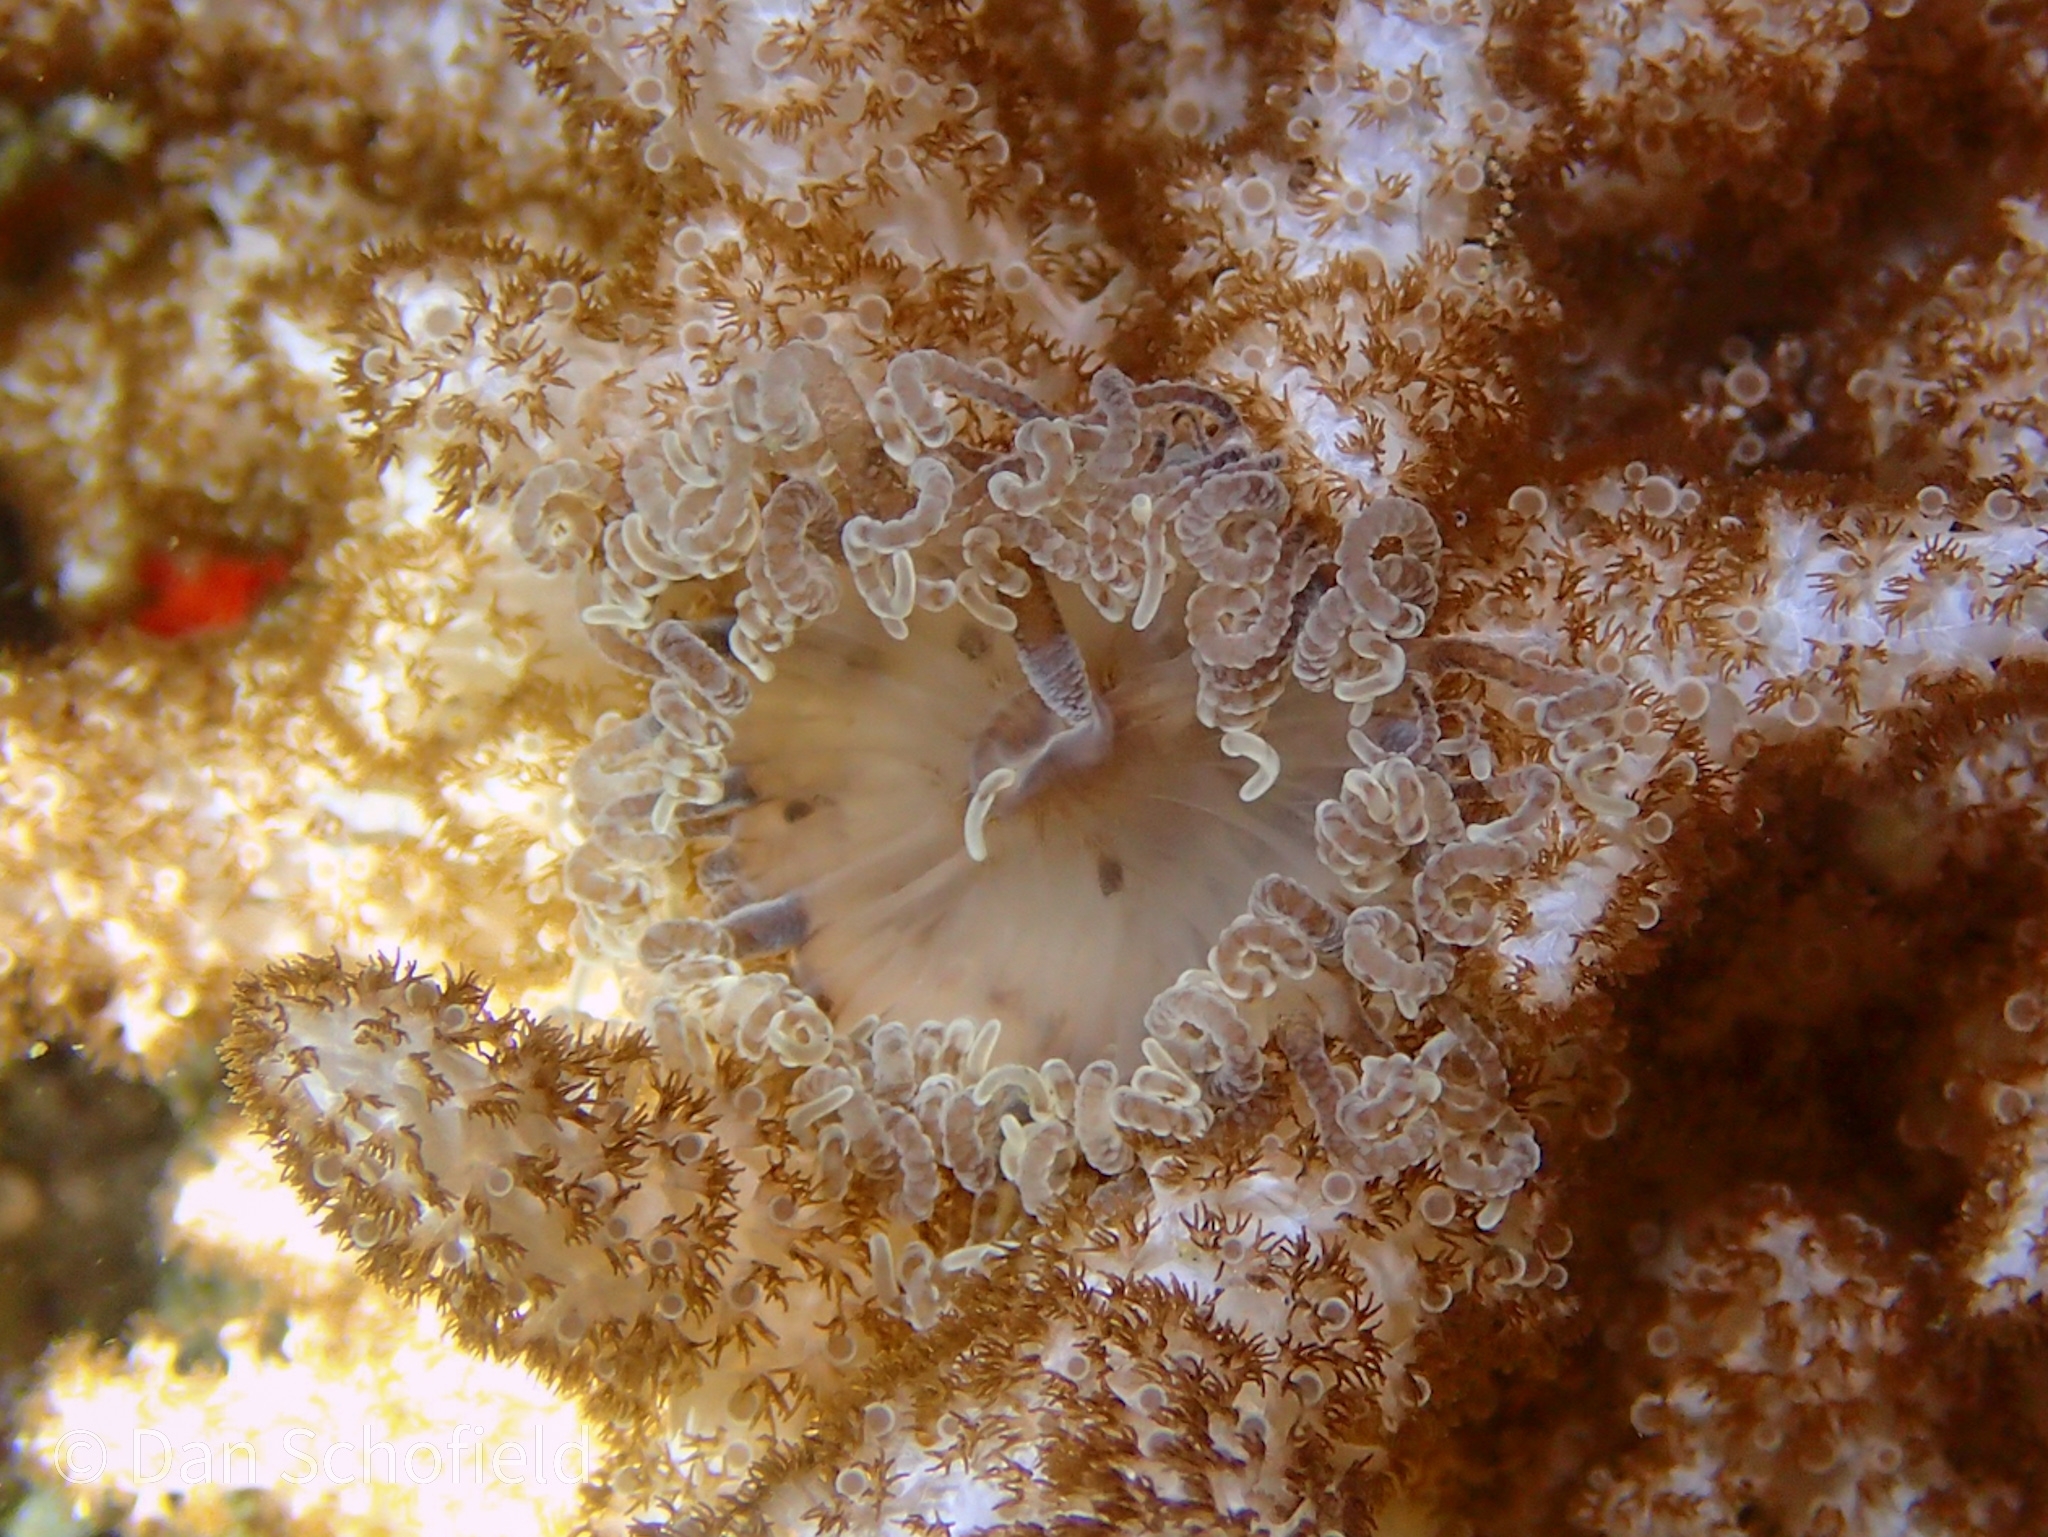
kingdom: Animalia
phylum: Cnidaria
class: Anthozoa
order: Actiniaria
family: Aliciidae
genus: Phyllodiscus
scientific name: Phyllodiscus semoni
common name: Night anemone
